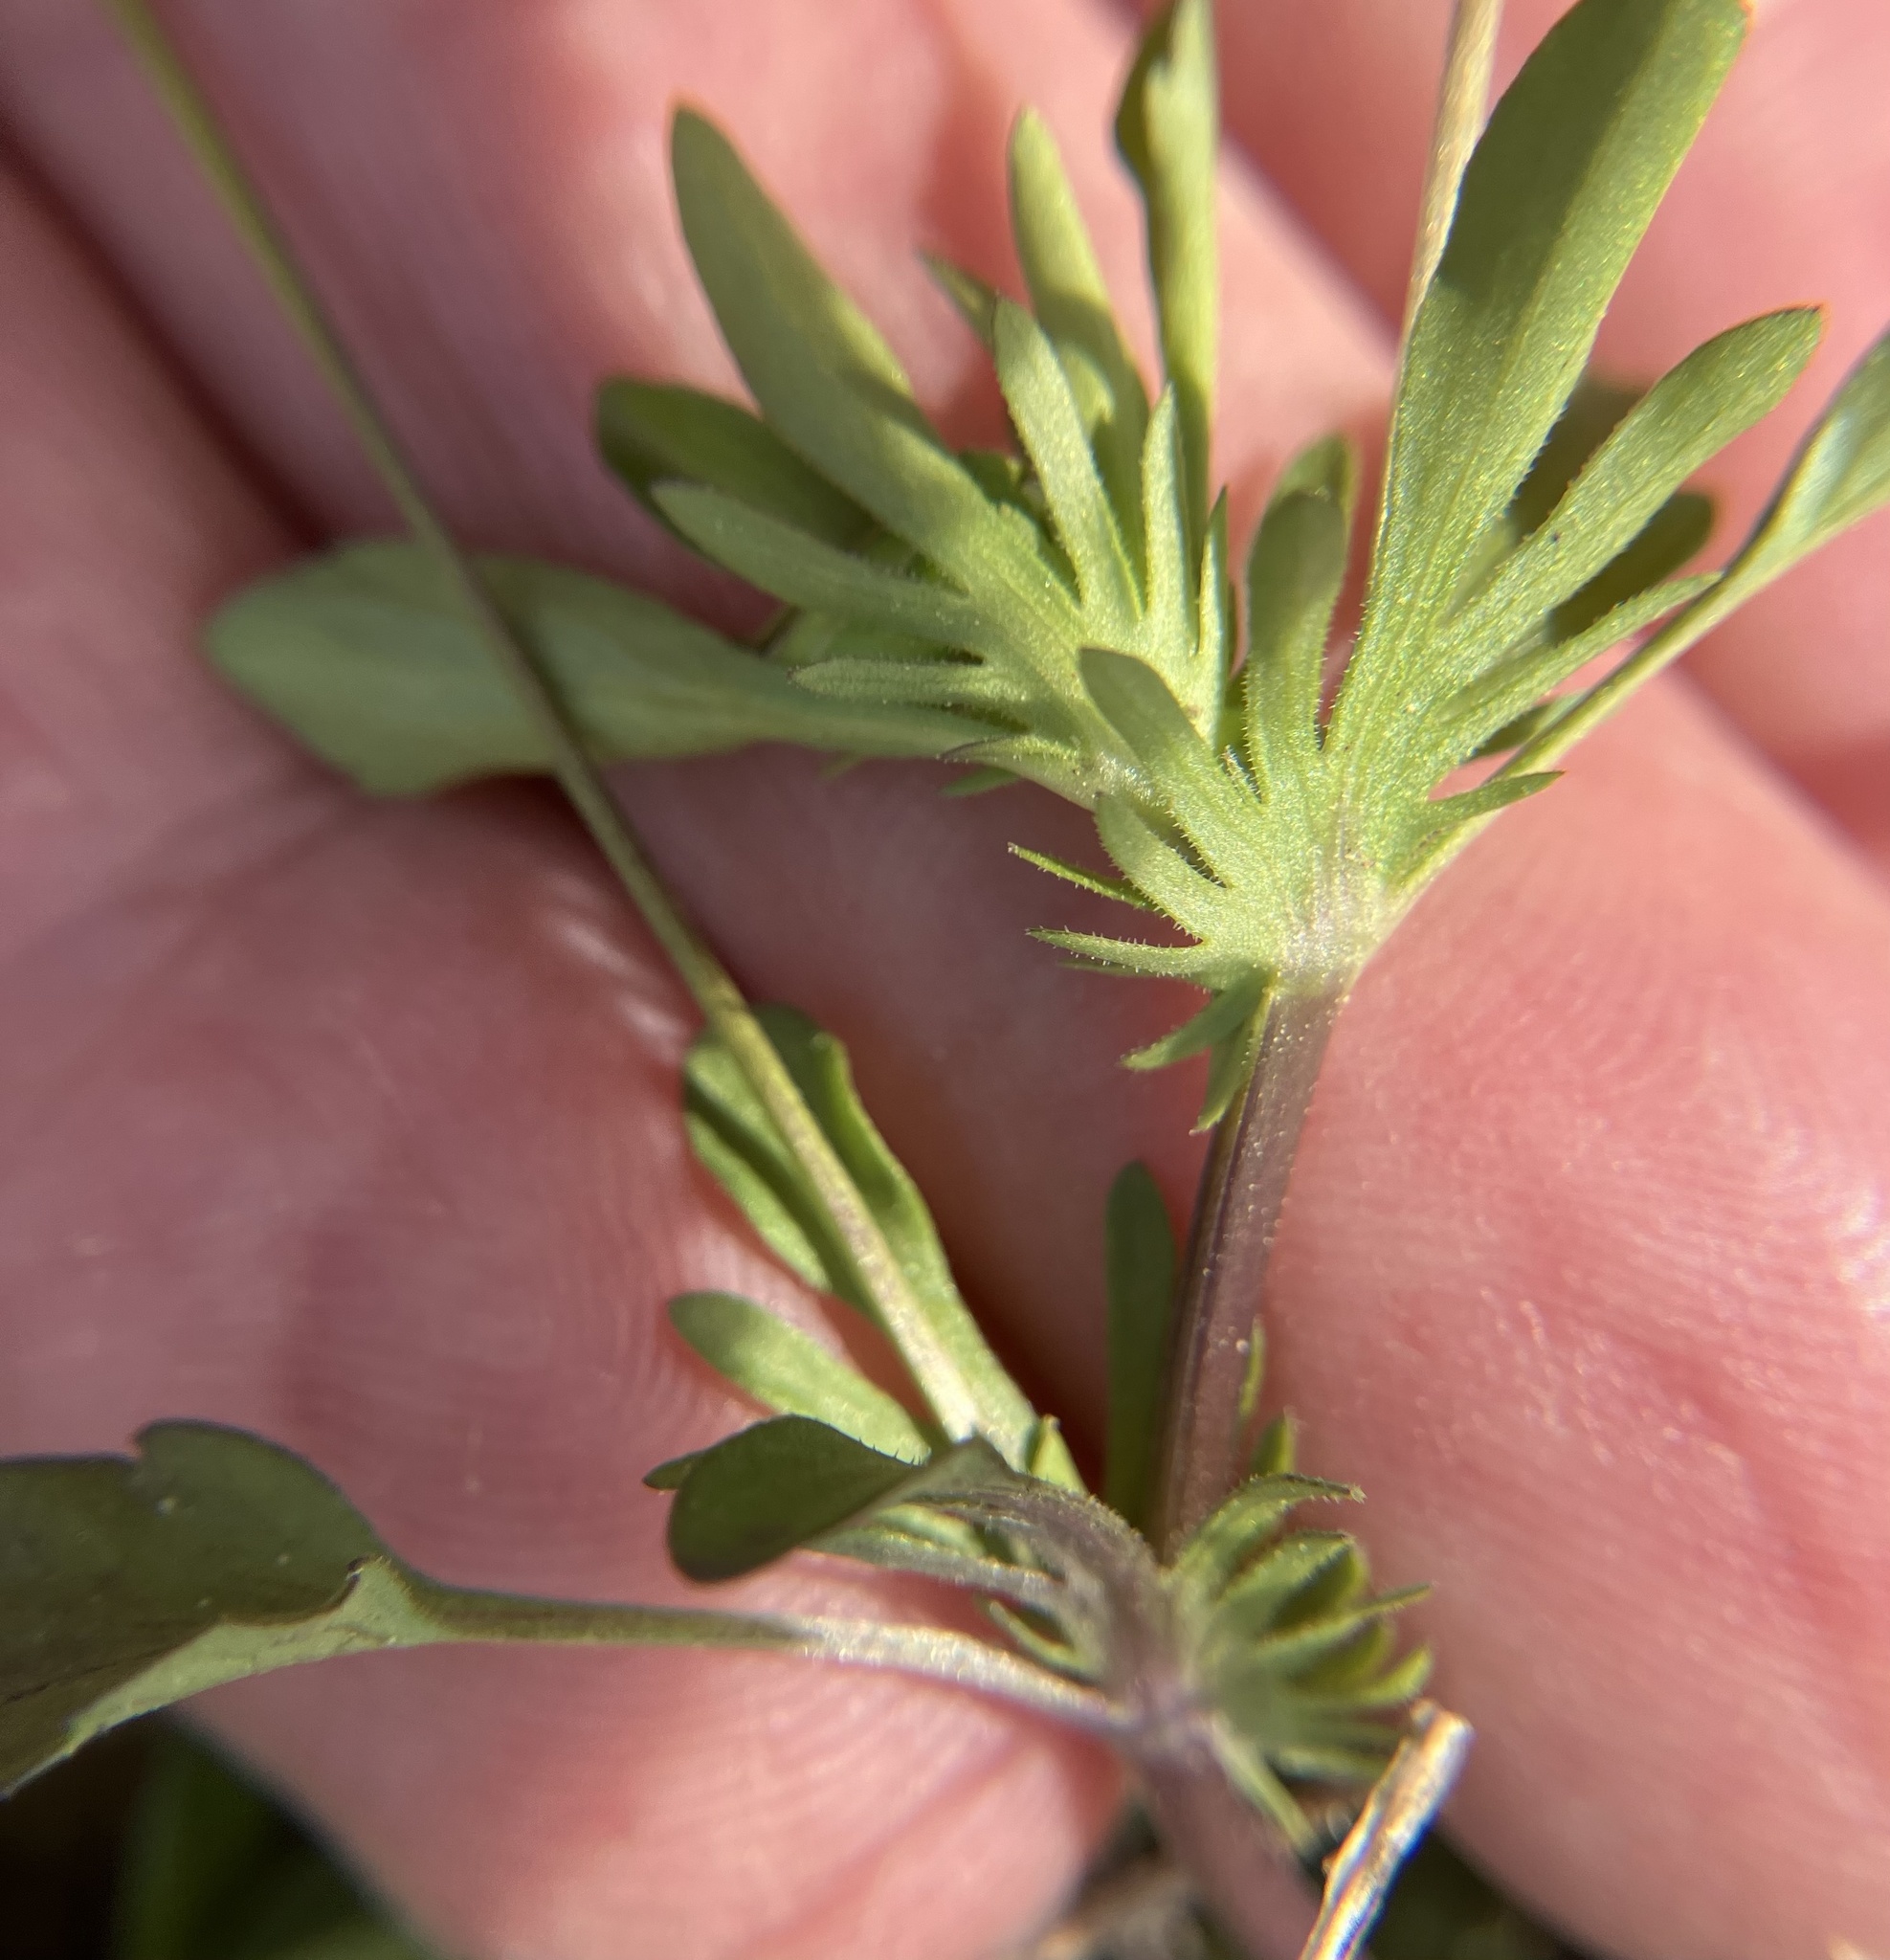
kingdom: Plantae
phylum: Tracheophyta
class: Magnoliopsida
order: Malpighiales
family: Violaceae
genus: Viola
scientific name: Viola rafinesquei
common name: American field pansy
